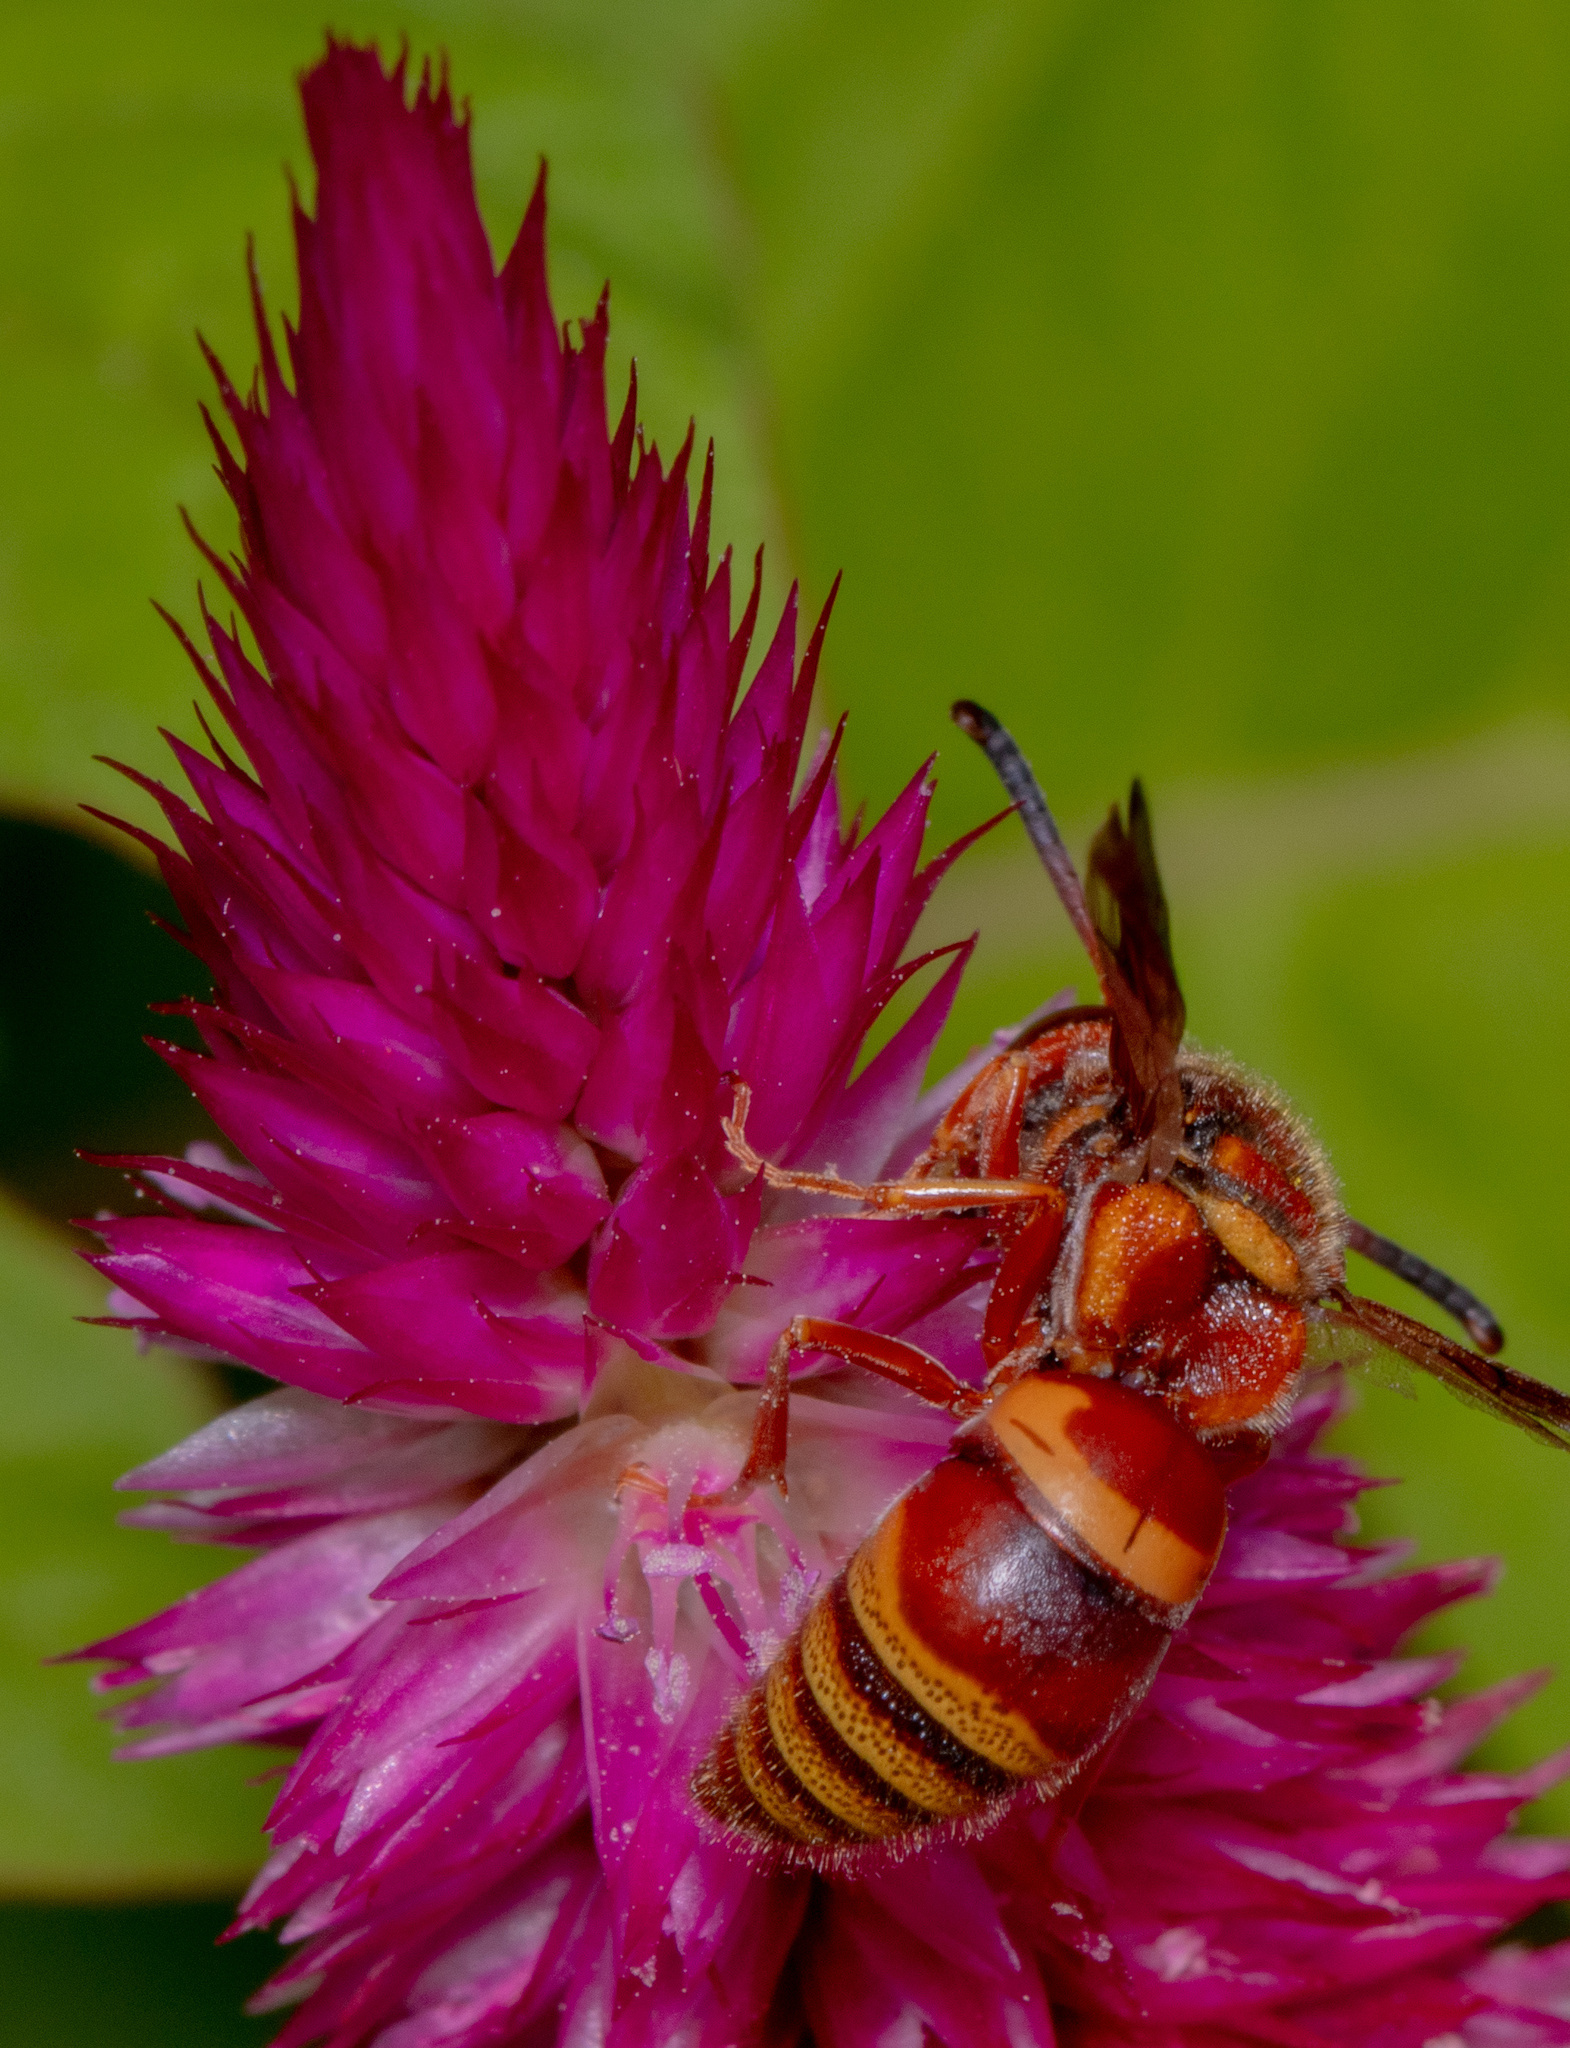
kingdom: Animalia
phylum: Arthropoda
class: Insecta
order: Hymenoptera
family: Eumenidae
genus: Euodynerus
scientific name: Euodynerus pratensis
